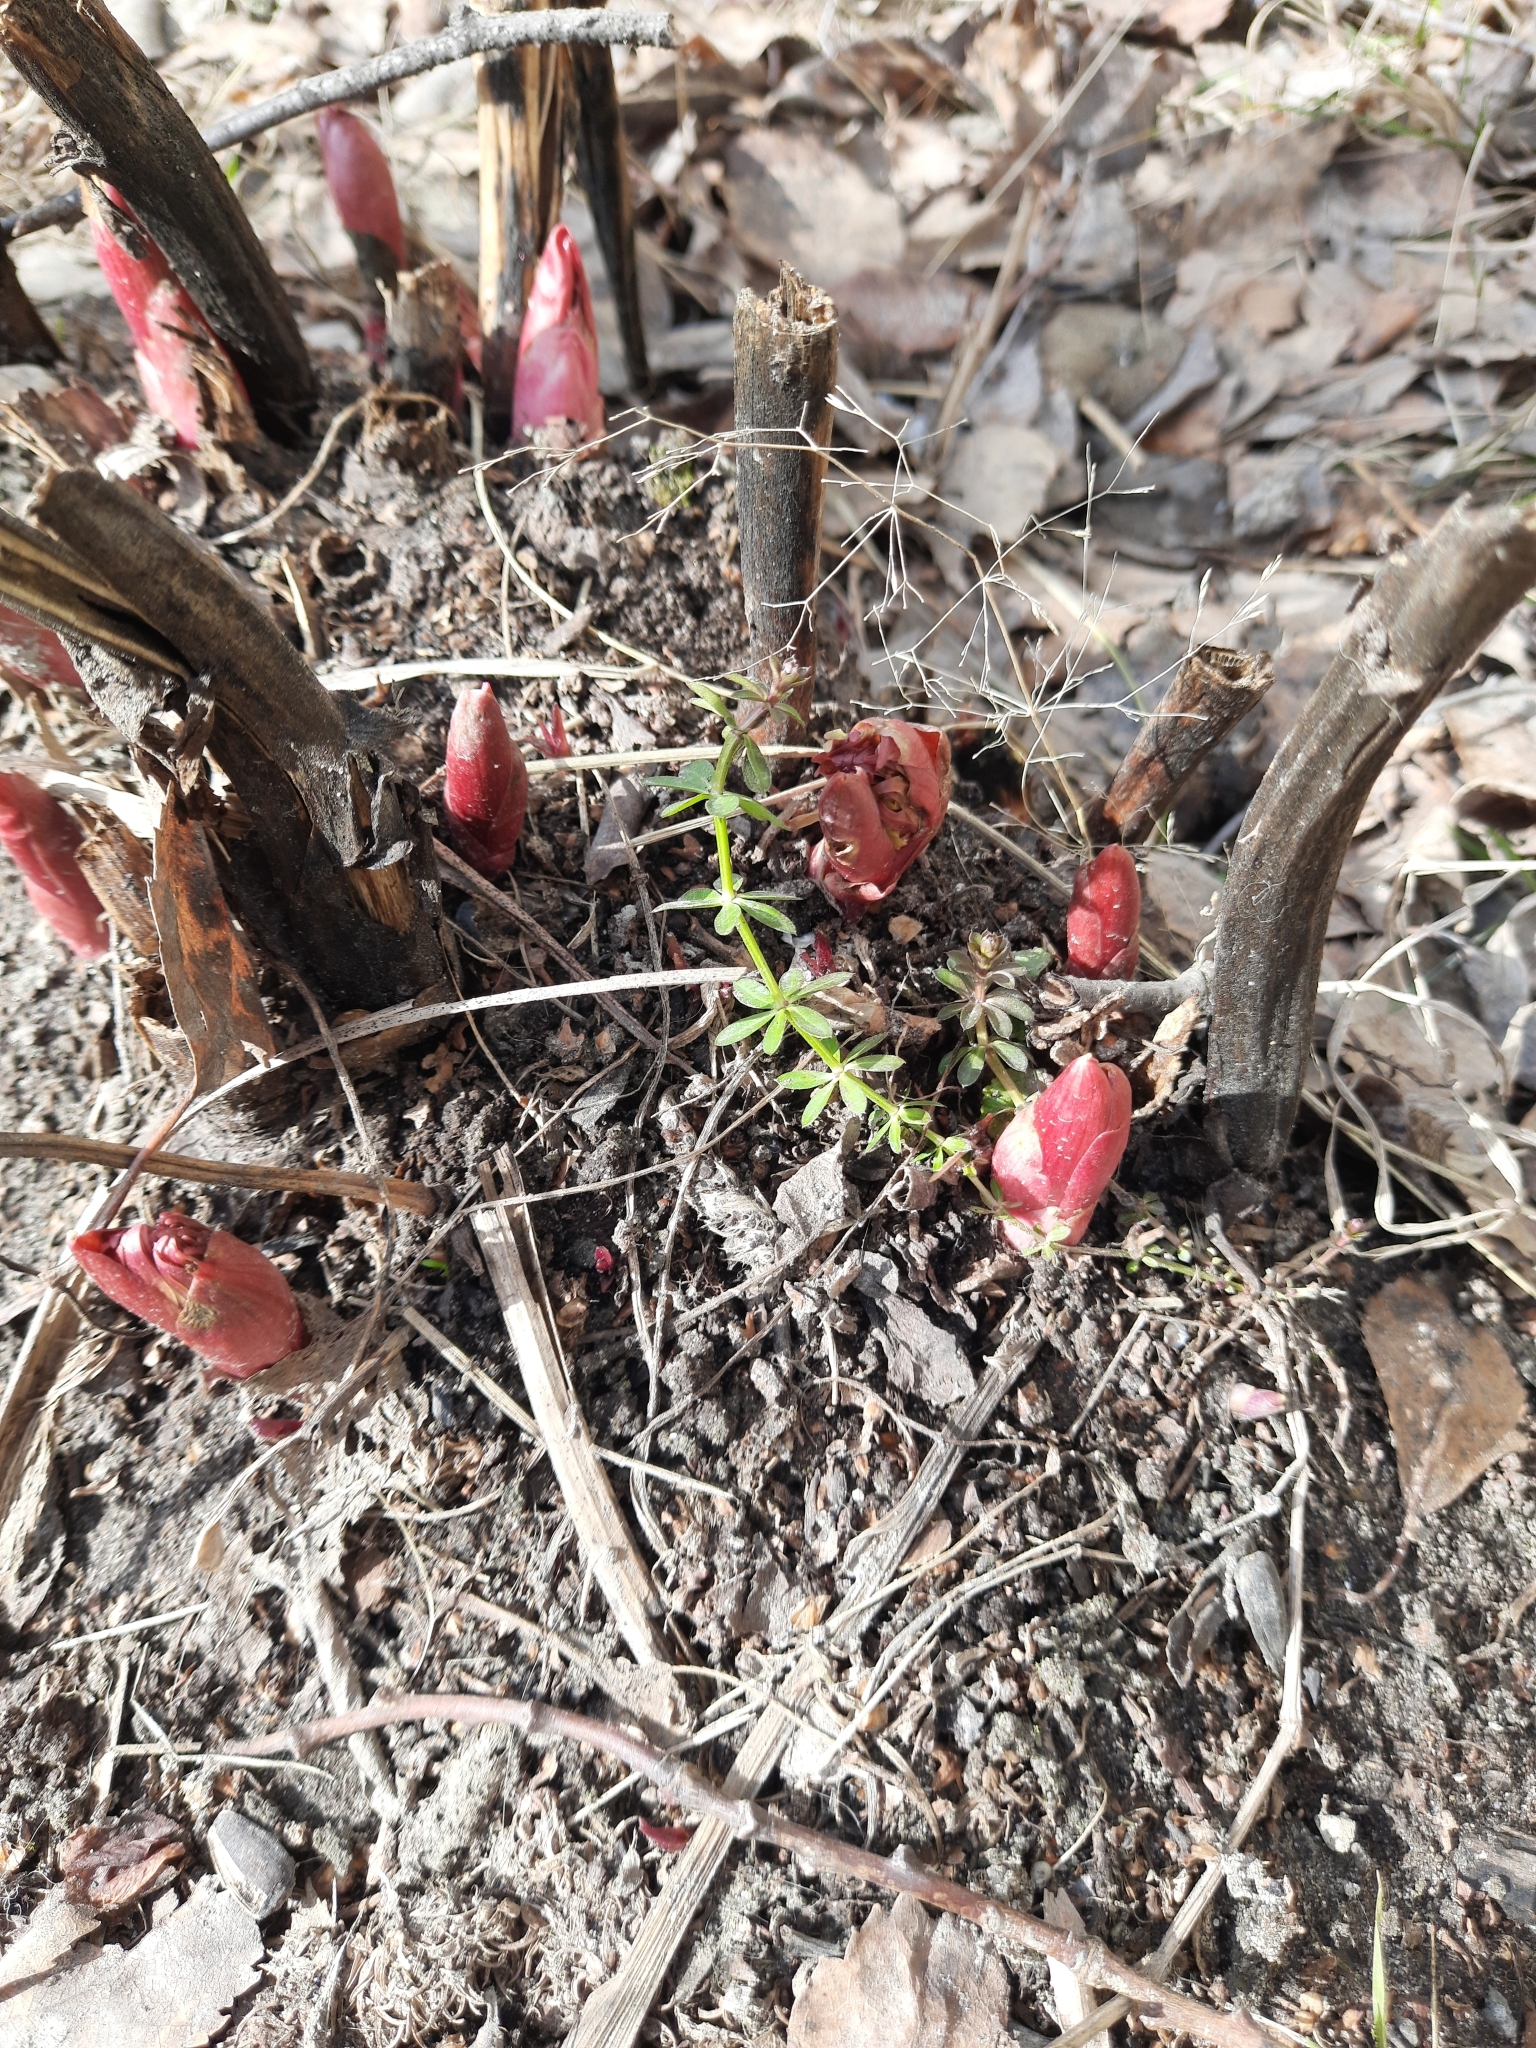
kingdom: Plantae
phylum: Tracheophyta
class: Magnoliopsida
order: Saxifragales
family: Paeoniaceae
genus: Paeonia
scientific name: Paeonia anomala
